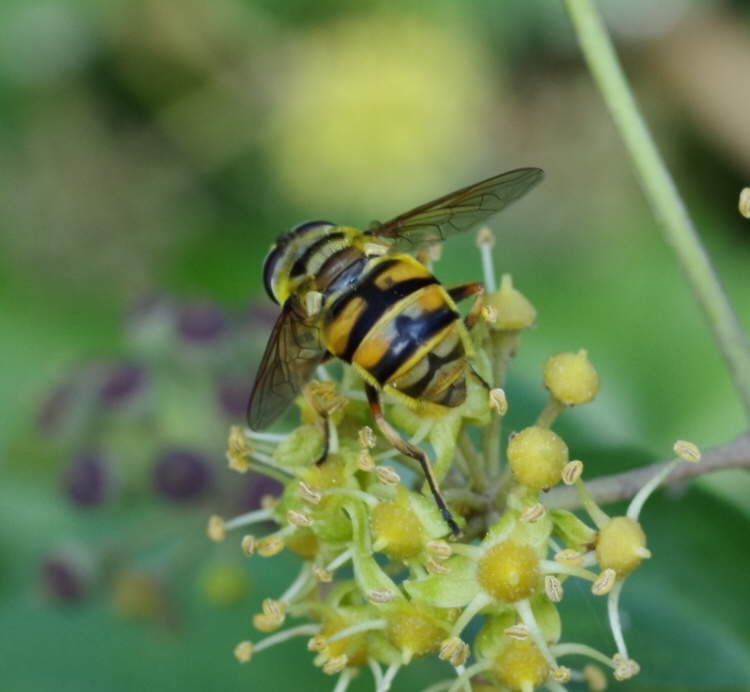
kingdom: Animalia
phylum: Arthropoda
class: Insecta
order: Diptera
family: Syrphidae
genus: Myathropa
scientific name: Myathropa florea
